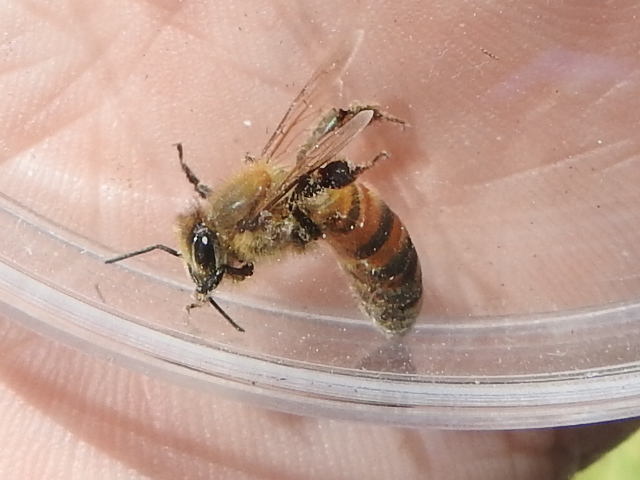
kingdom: Animalia
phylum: Arthropoda
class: Insecta
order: Hymenoptera
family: Apidae
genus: Apis
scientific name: Apis mellifera
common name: Honey bee
